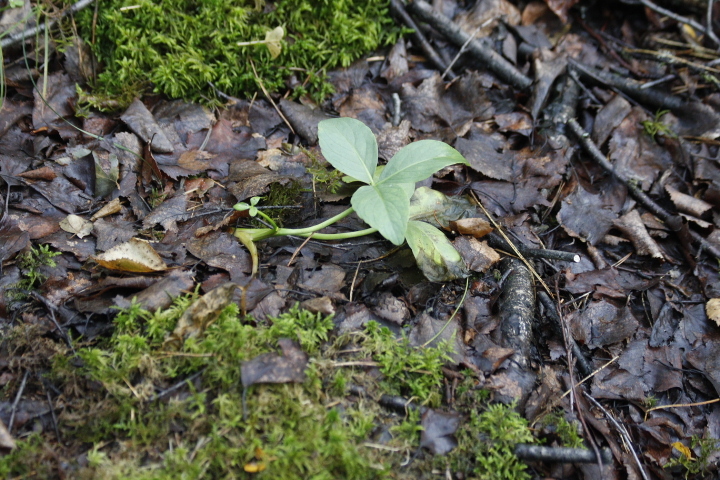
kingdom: Plantae
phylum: Tracheophyta
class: Magnoliopsida
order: Asterales
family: Menyanthaceae
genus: Menyanthes
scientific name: Menyanthes trifoliata
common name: Bogbean
